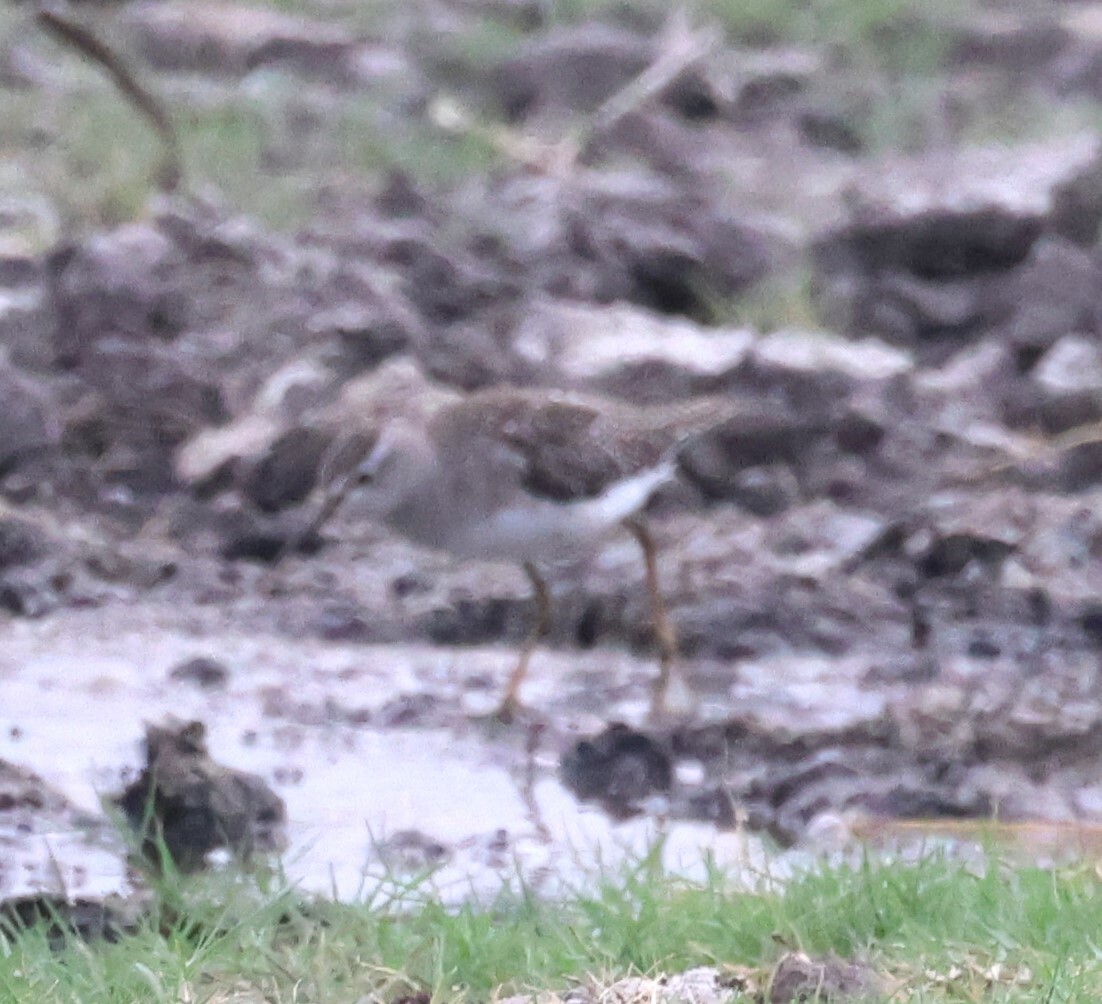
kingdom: Animalia
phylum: Chordata
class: Aves
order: Charadriiformes
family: Scolopacidae
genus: Tringa
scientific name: Tringa glareola
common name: Wood sandpiper
